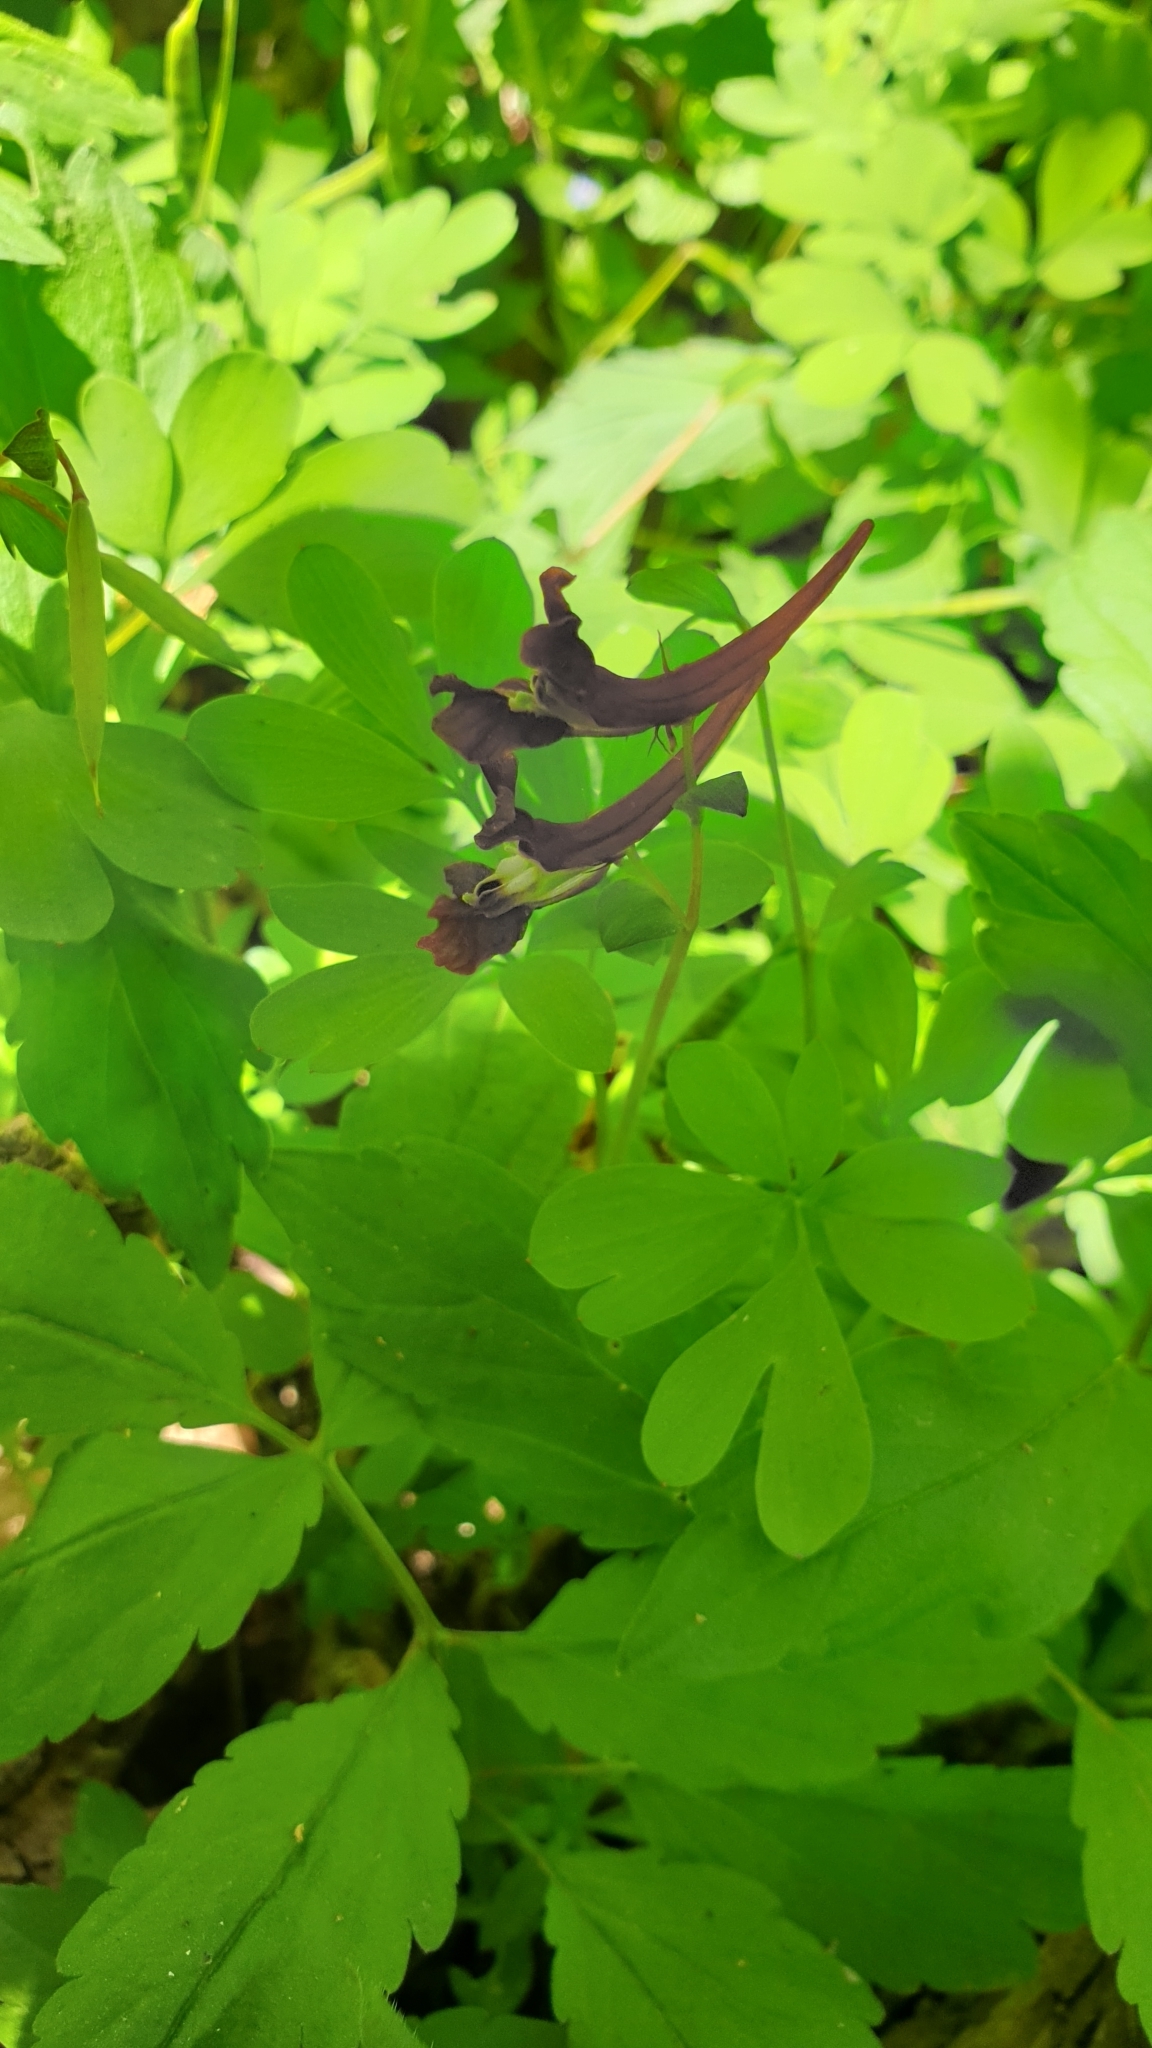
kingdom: Plantae
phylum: Tracheophyta
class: Magnoliopsida
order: Ranunculales
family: Papaveraceae
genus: Corydalis
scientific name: Corydalis caucasica
